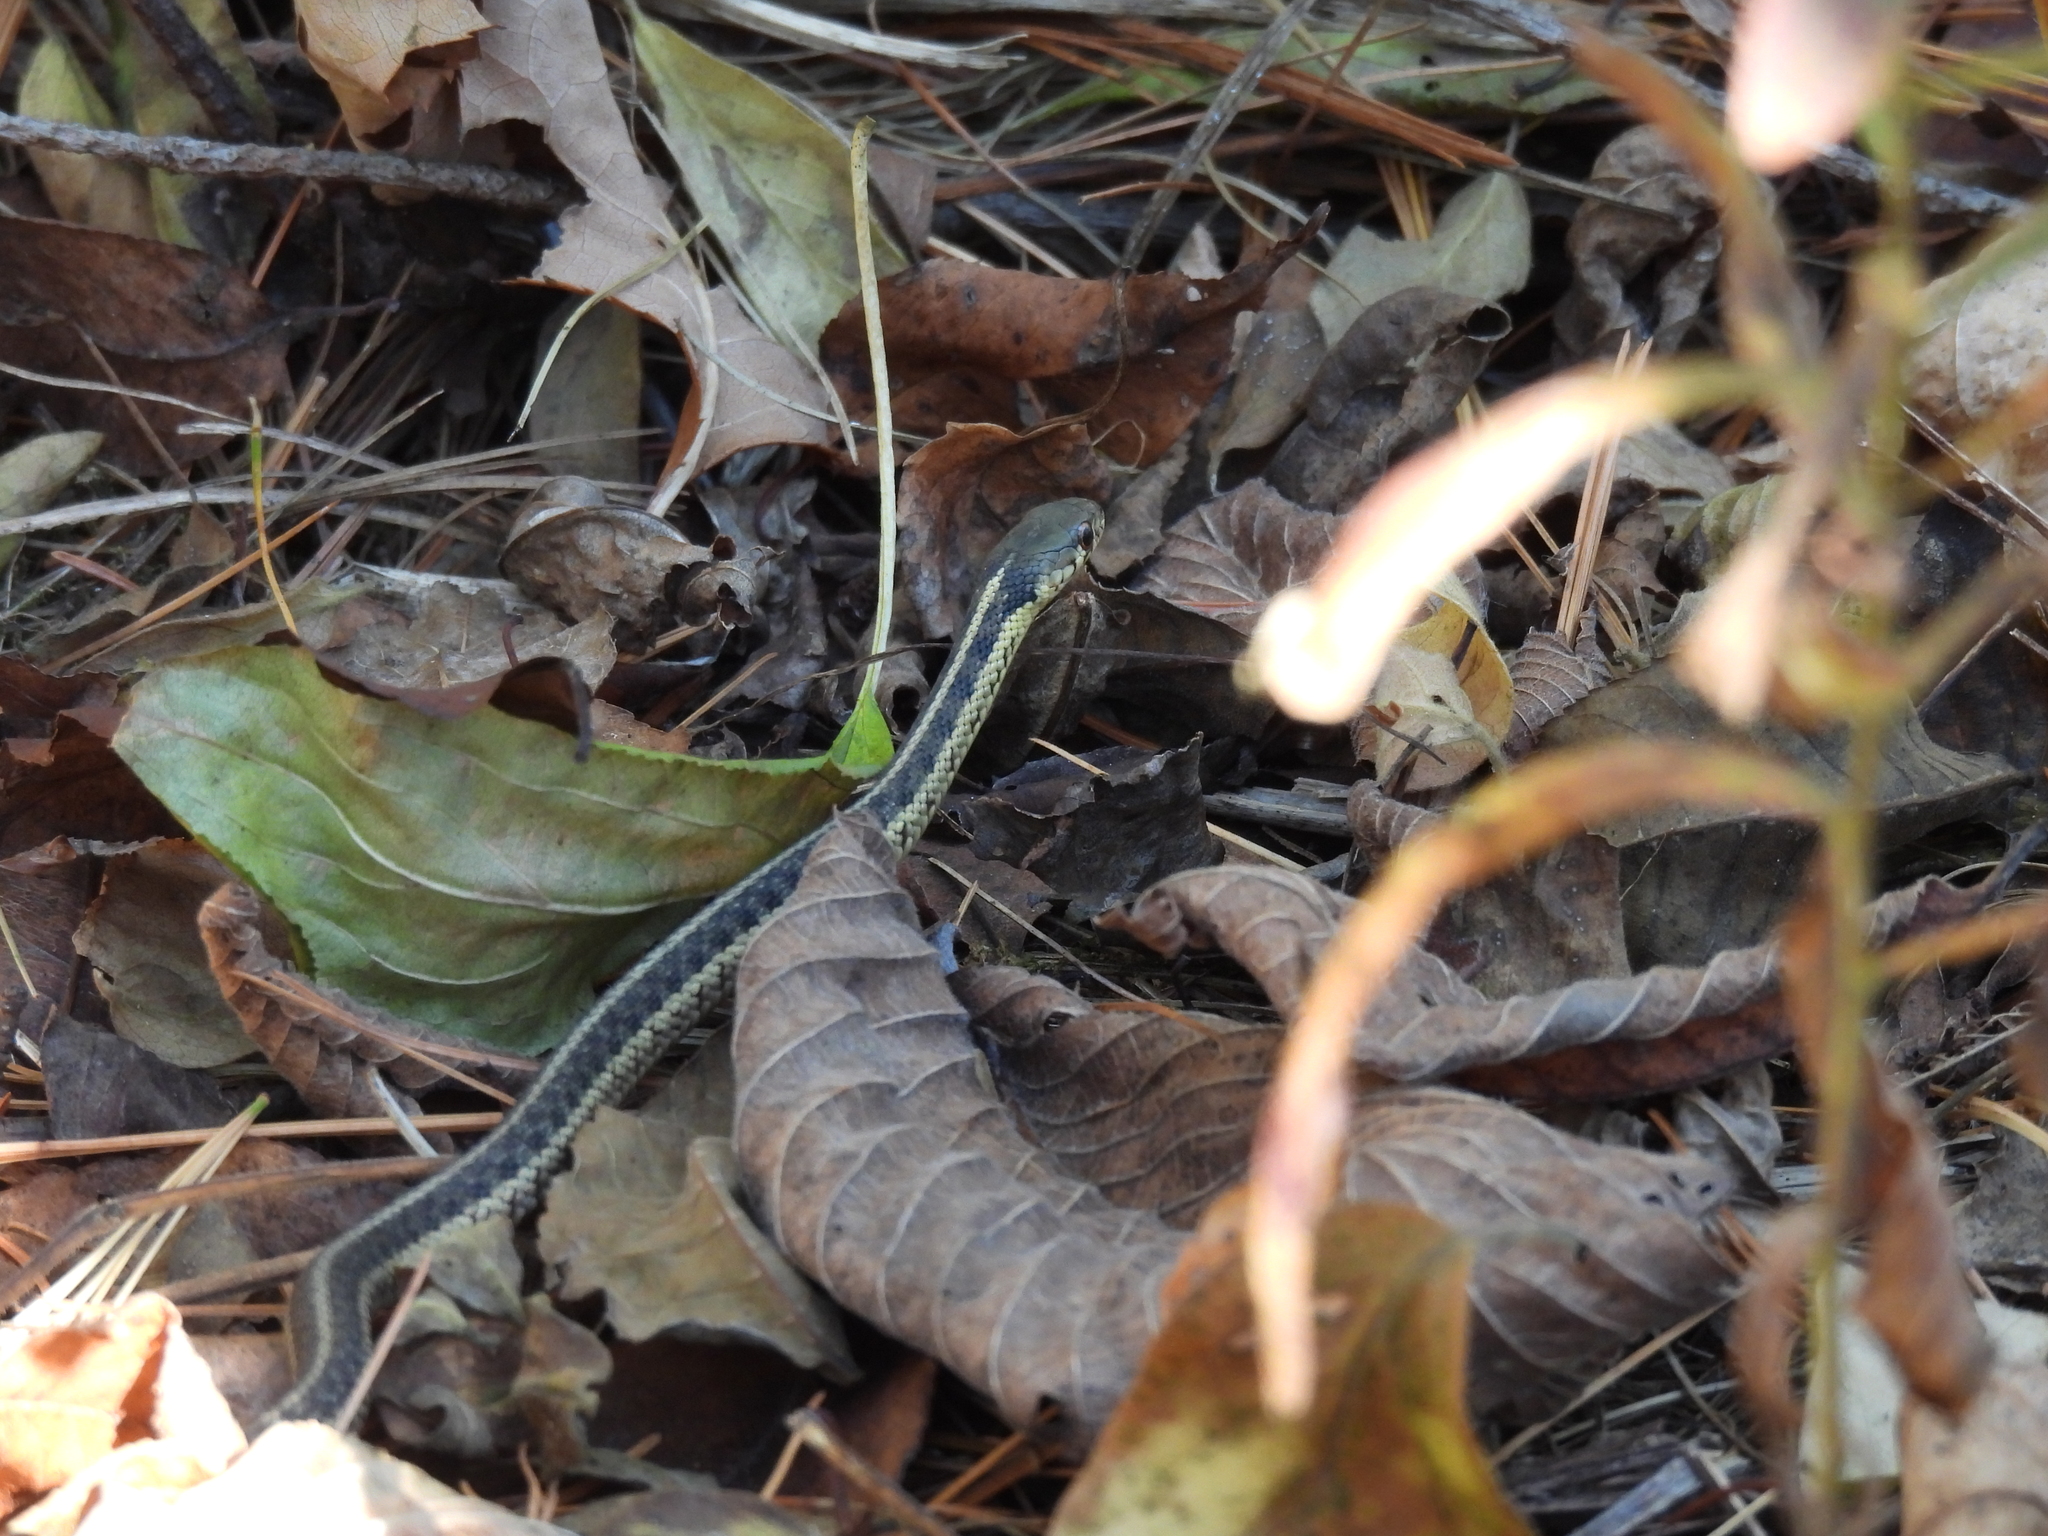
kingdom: Animalia
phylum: Chordata
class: Squamata
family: Colubridae
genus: Thamnophis
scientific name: Thamnophis sirtalis
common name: Common garter snake
